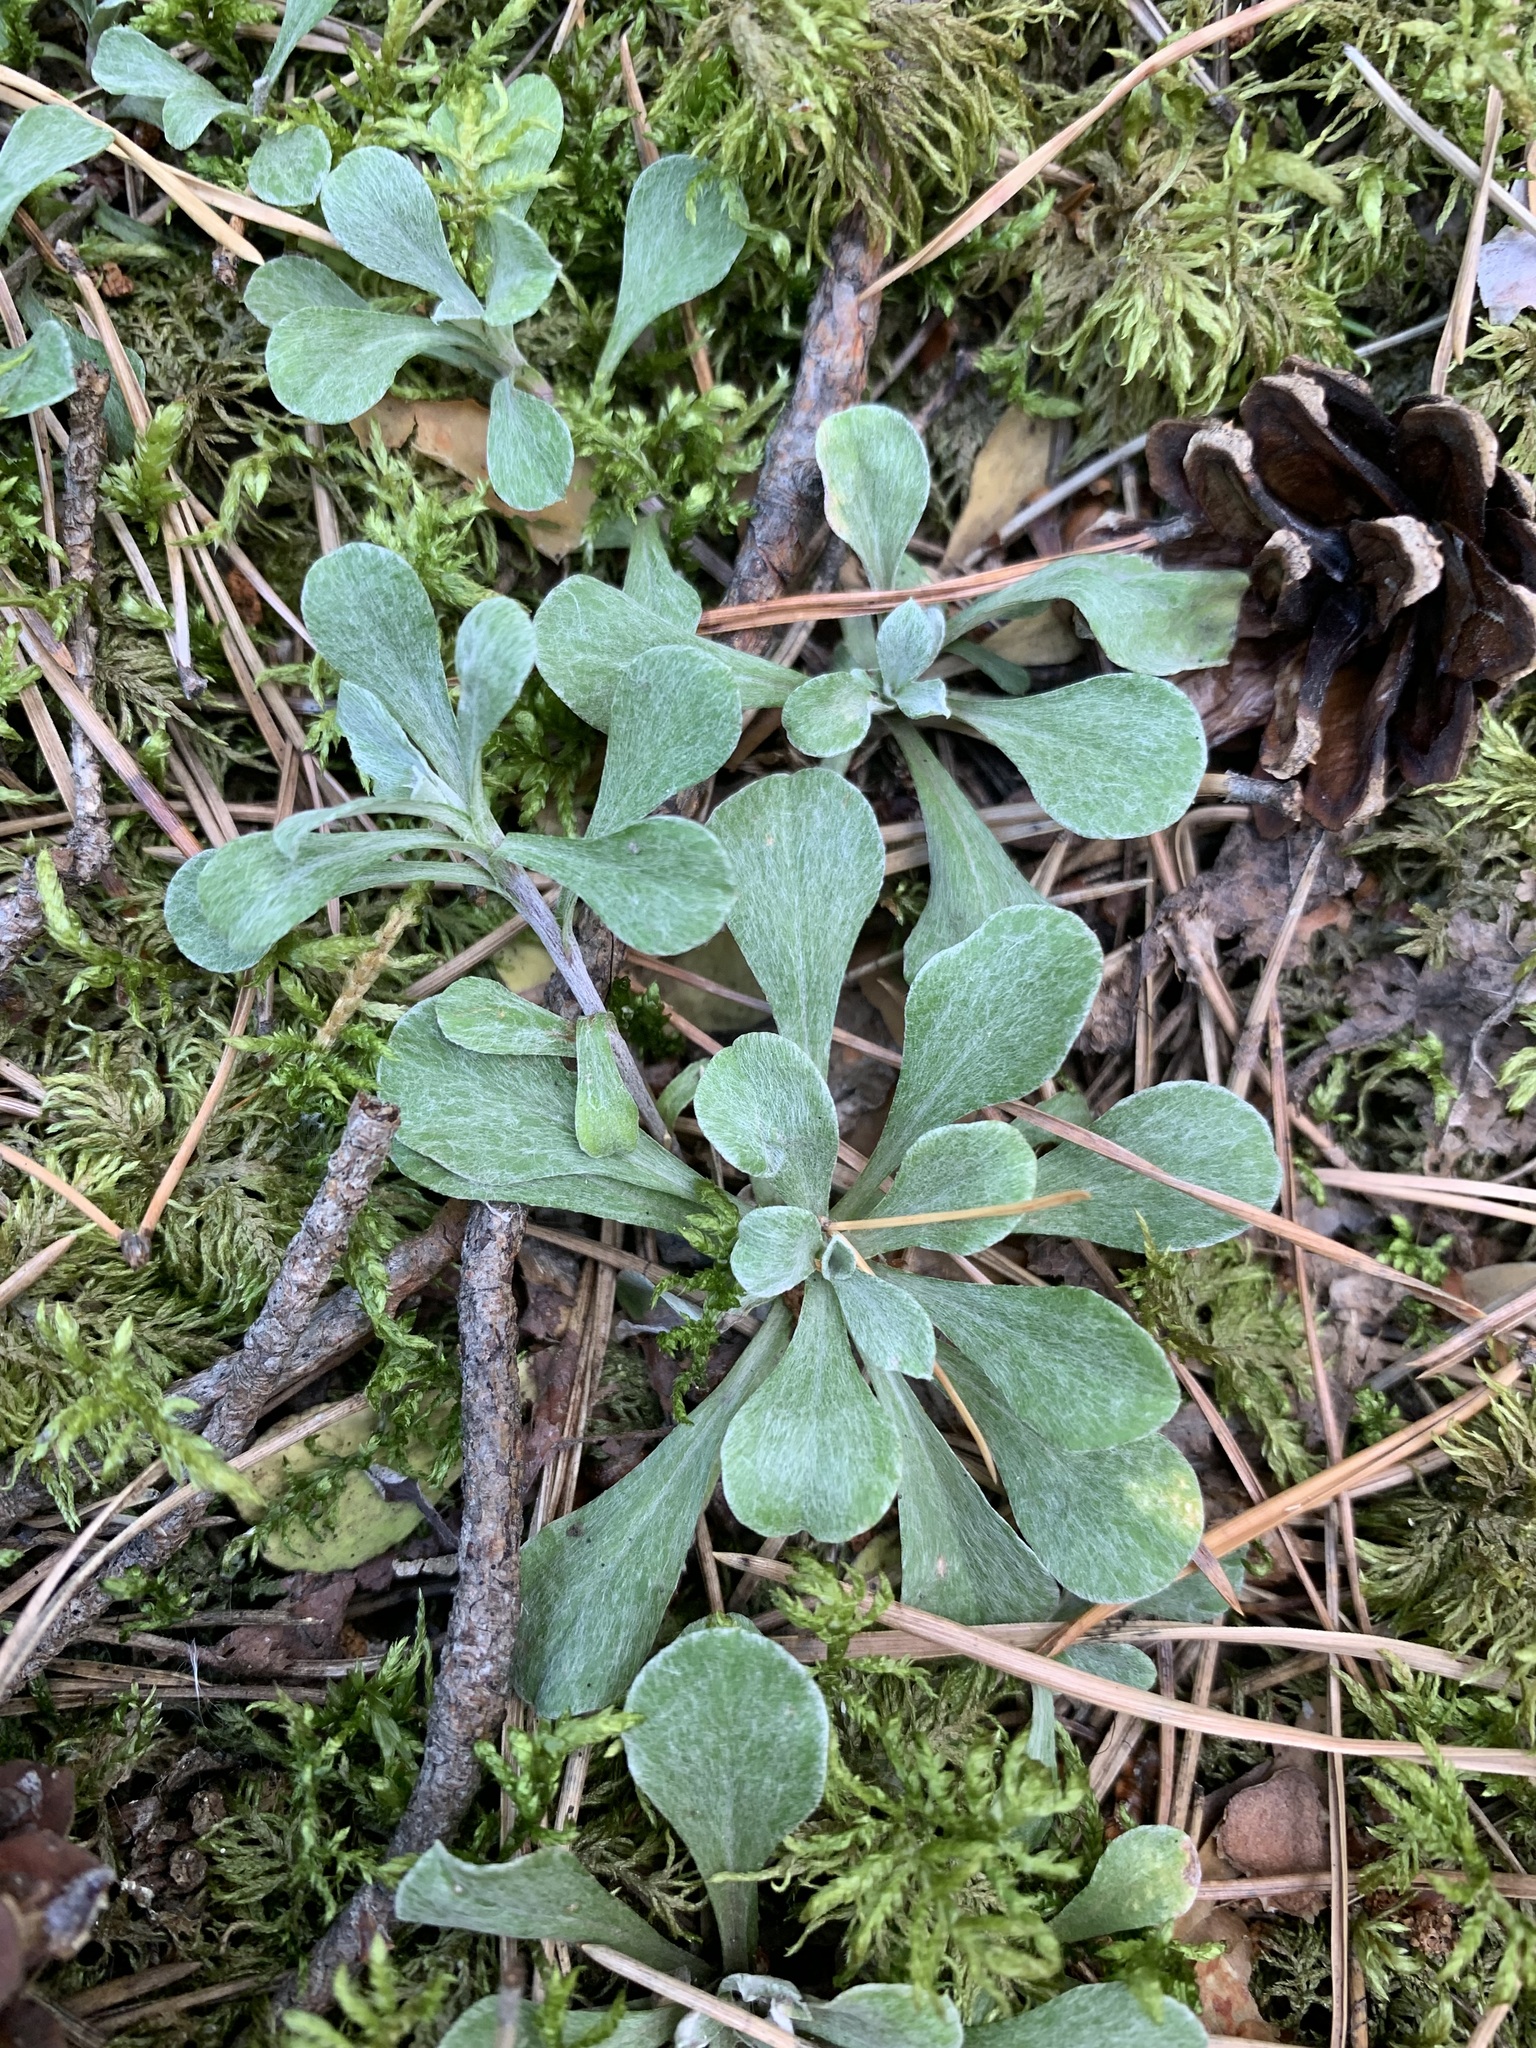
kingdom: Plantae
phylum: Tracheophyta
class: Magnoliopsida
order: Asterales
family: Asteraceae
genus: Antennaria
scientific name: Antennaria dioica
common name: Mountain everlasting
